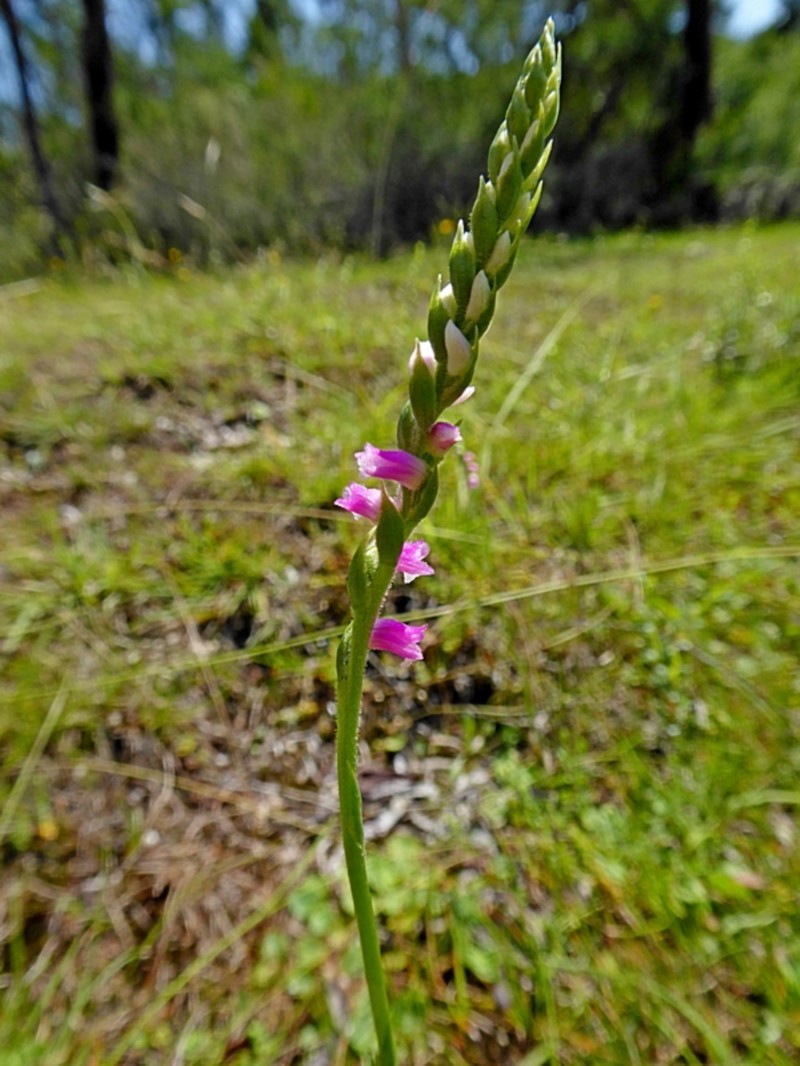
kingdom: Plantae
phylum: Tracheophyta
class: Liliopsida
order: Asparagales
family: Orchidaceae
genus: Spiranthes
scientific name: Spiranthes australis
